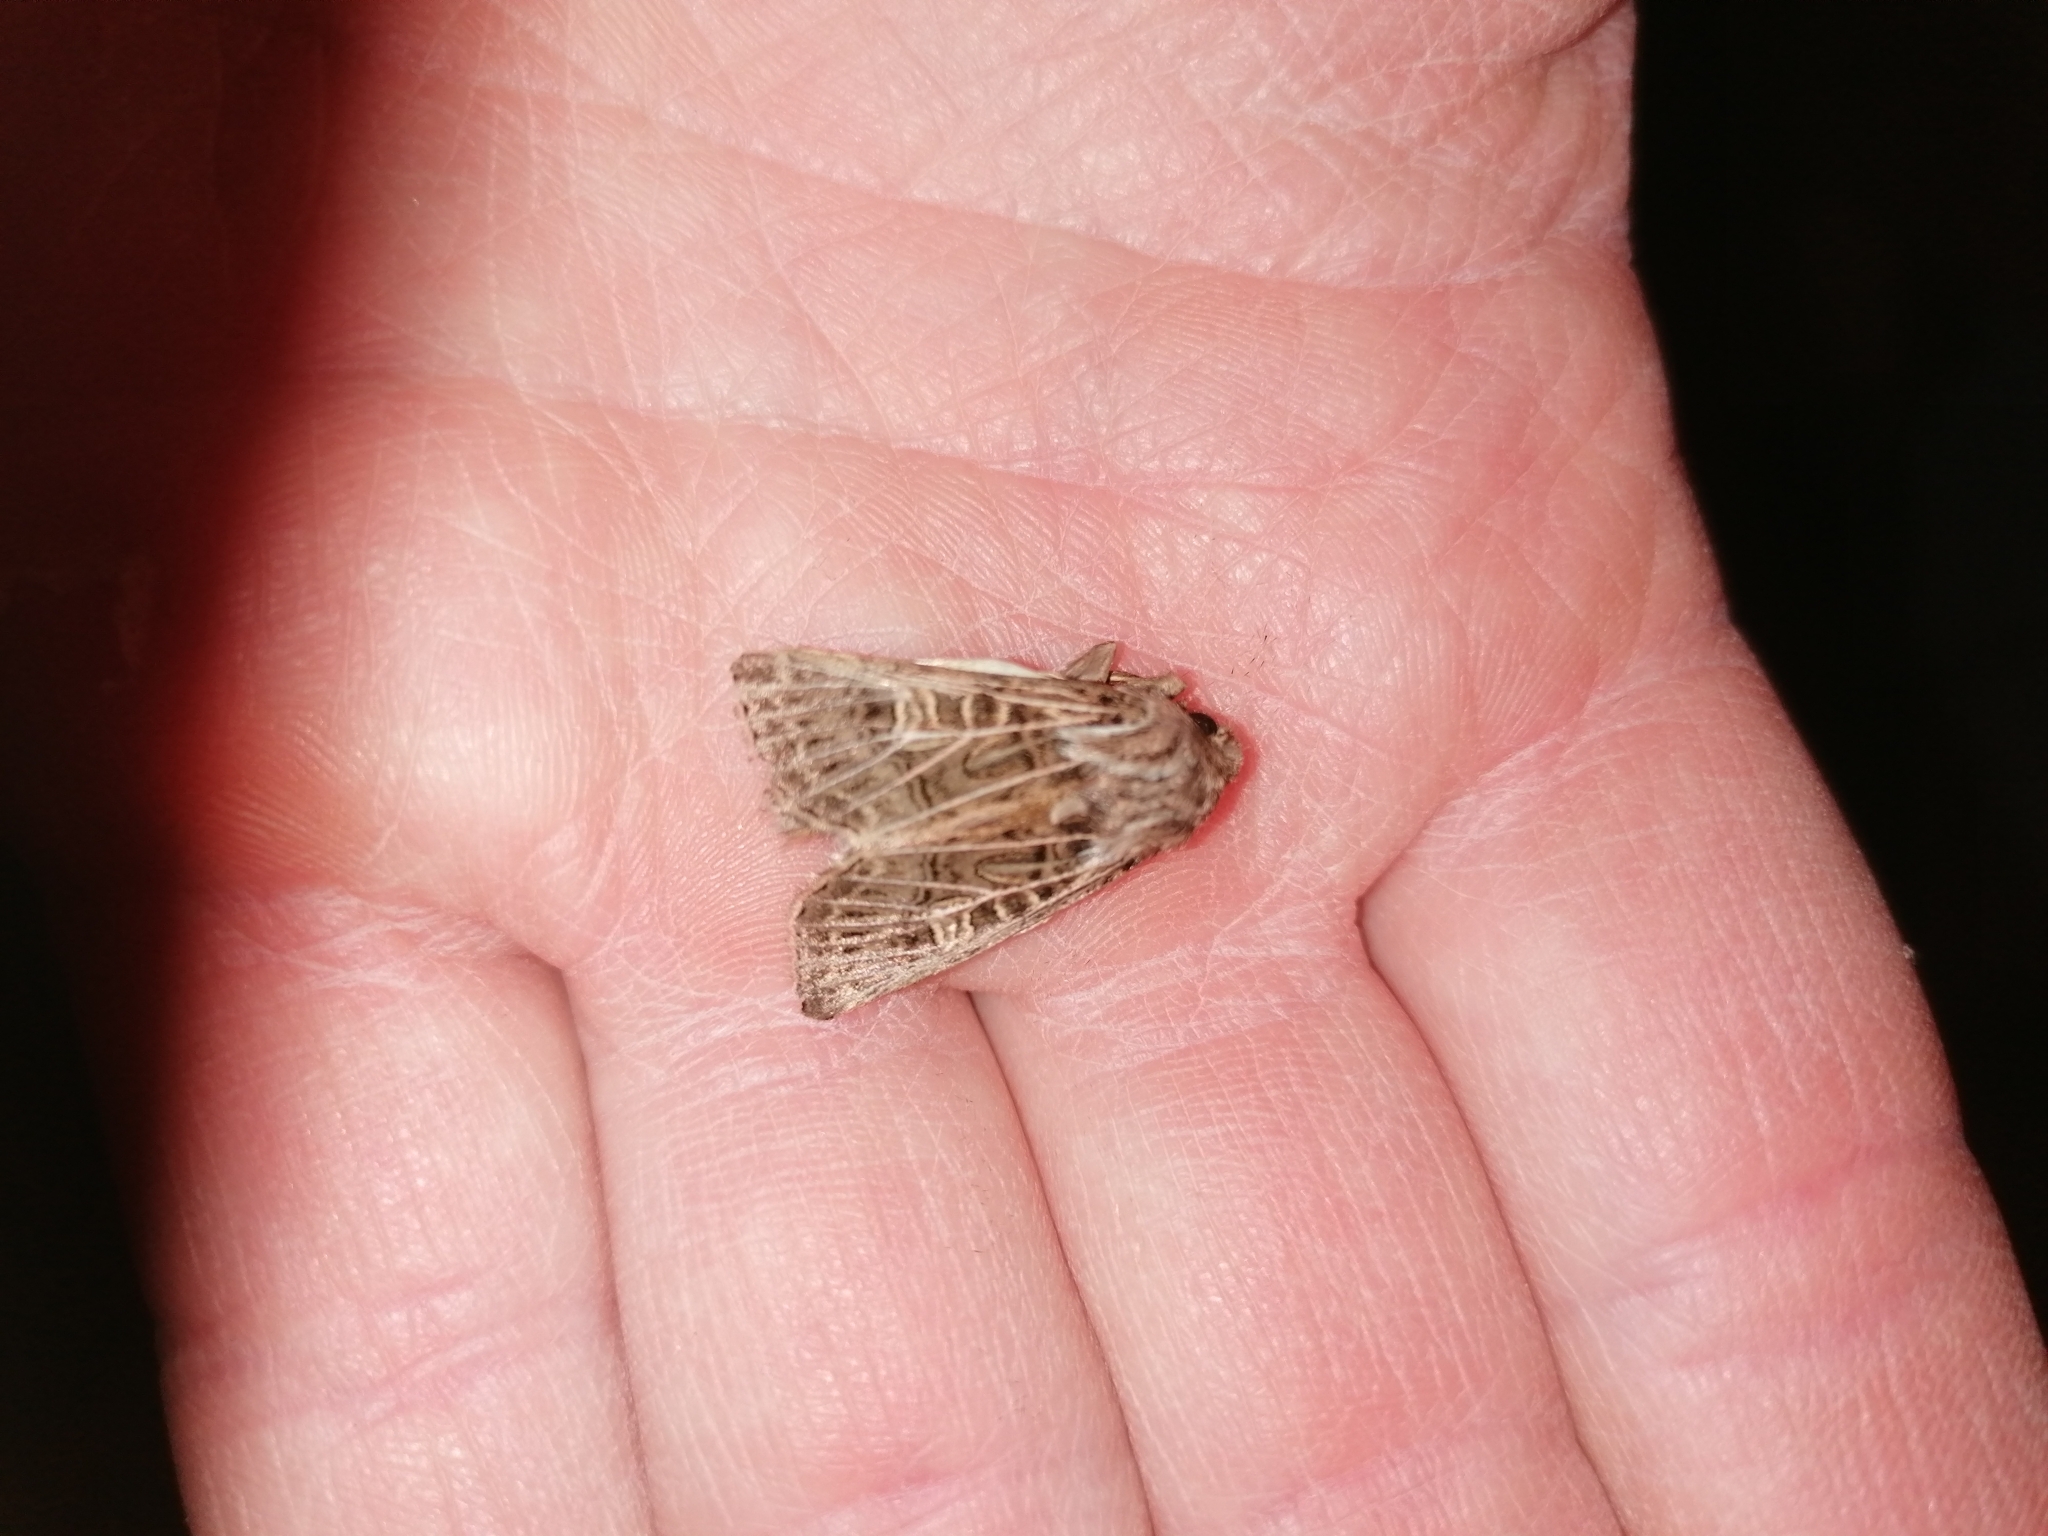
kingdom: Animalia
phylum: Arthropoda
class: Insecta
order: Lepidoptera
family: Noctuidae
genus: Tholera
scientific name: Tholera decimalis
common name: Feathered gothic
